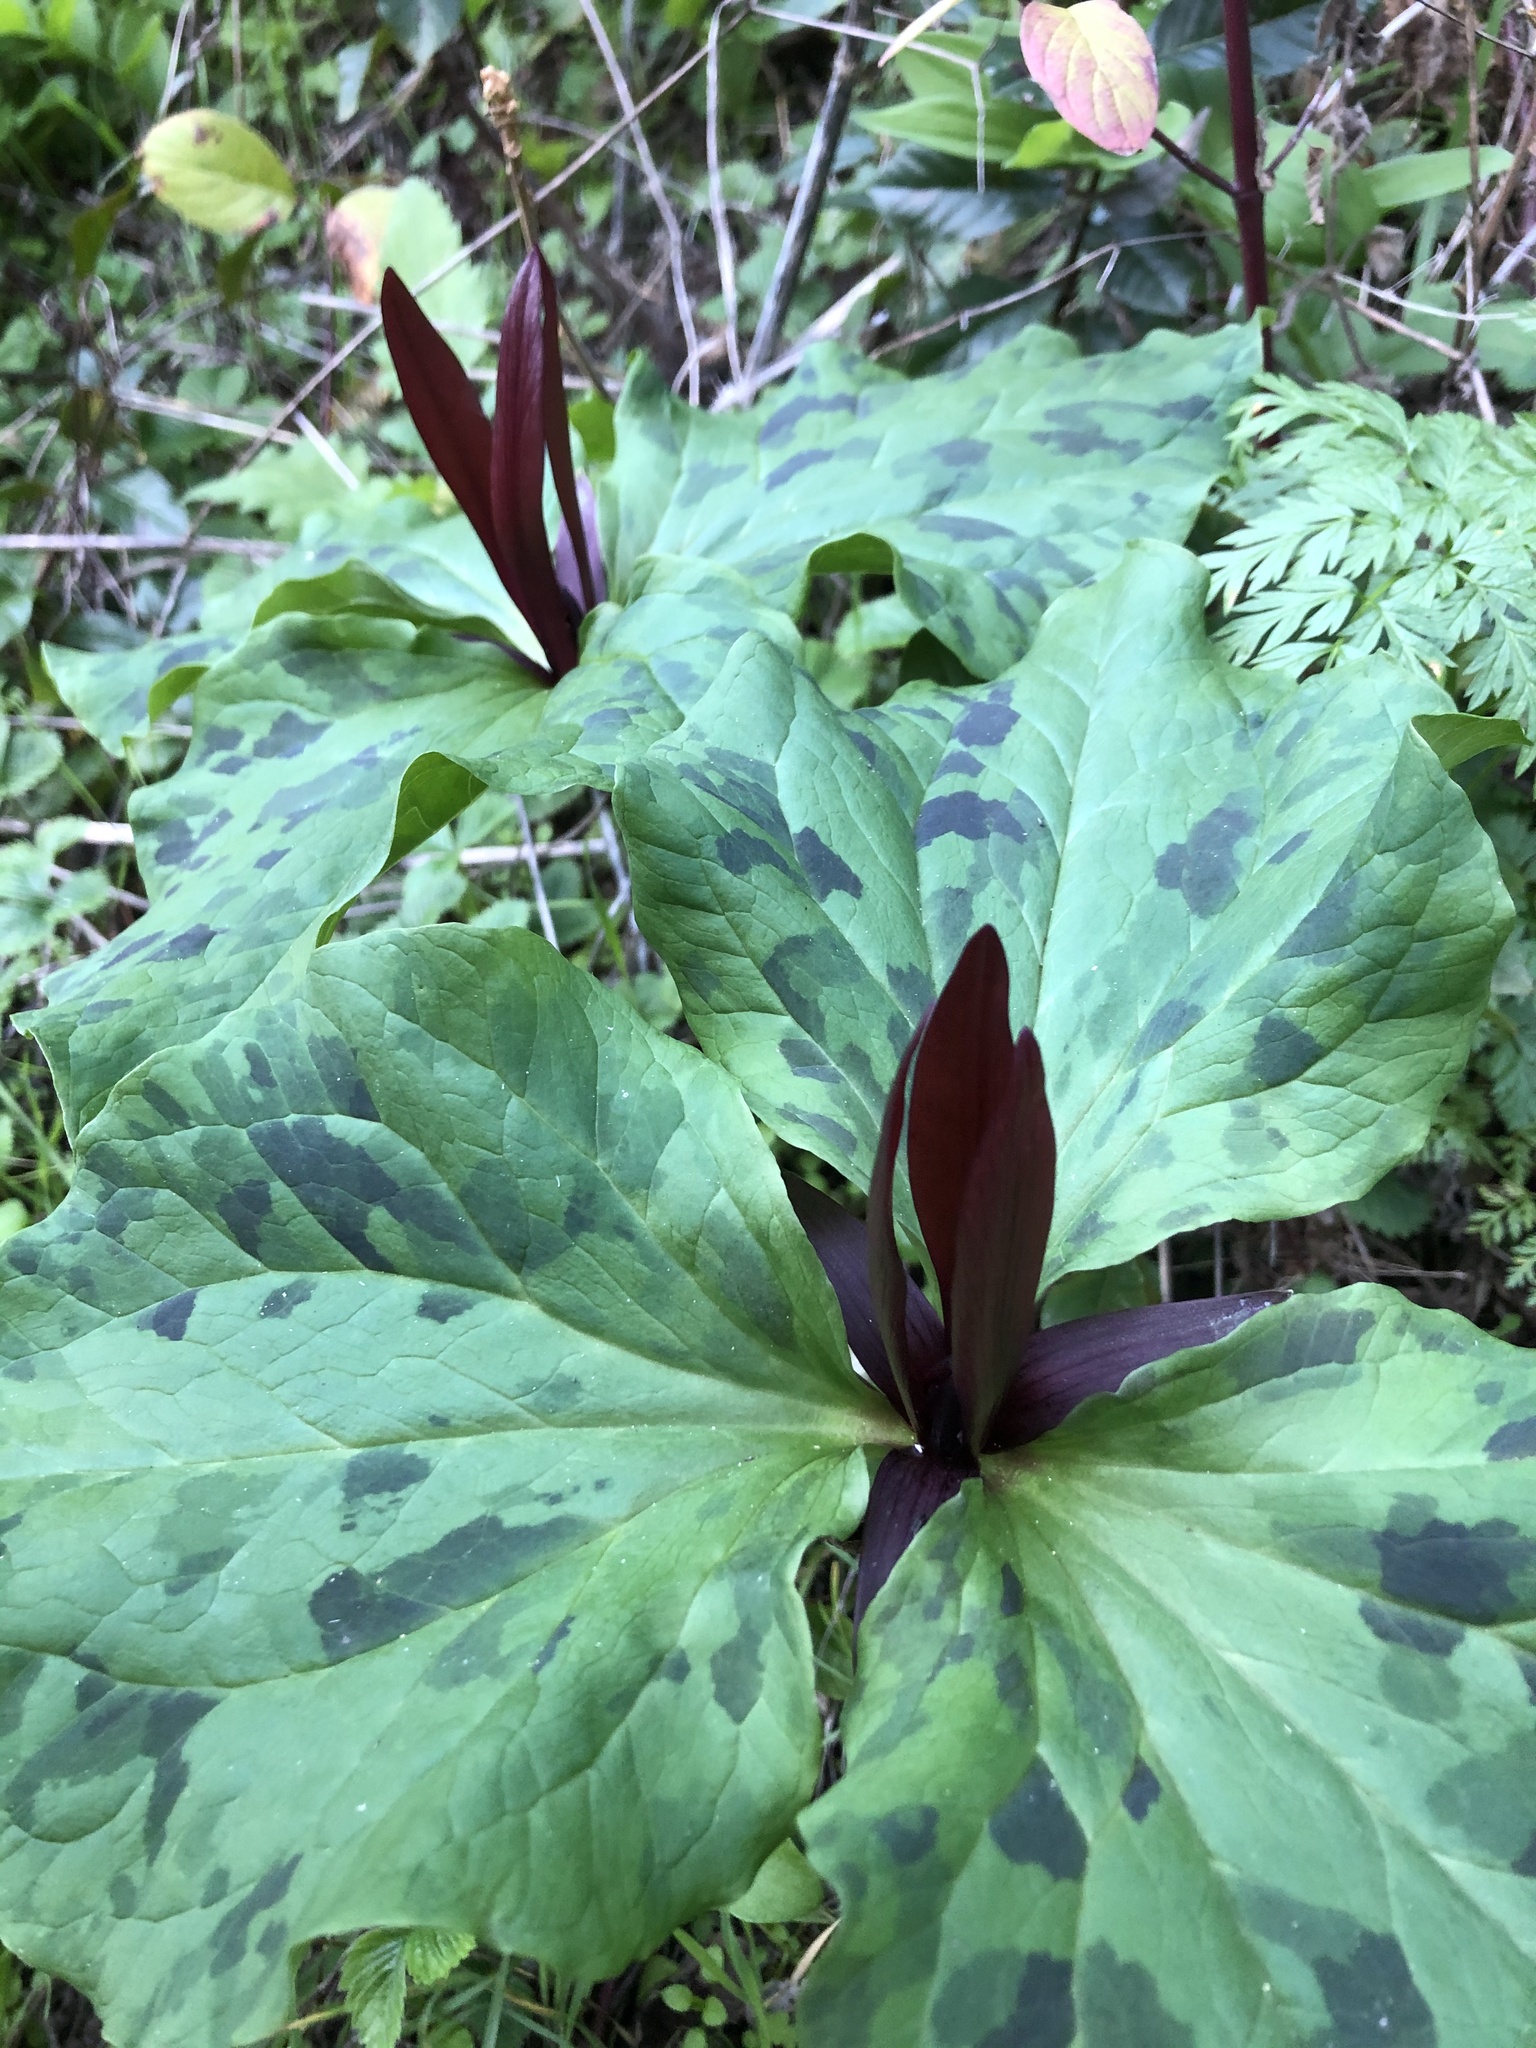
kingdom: Plantae
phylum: Tracheophyta
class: Liliopsida
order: Liliales
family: Melanthiaceae
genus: Trillium
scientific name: Trillium angustipetalum
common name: Narrow-petaled trillium
